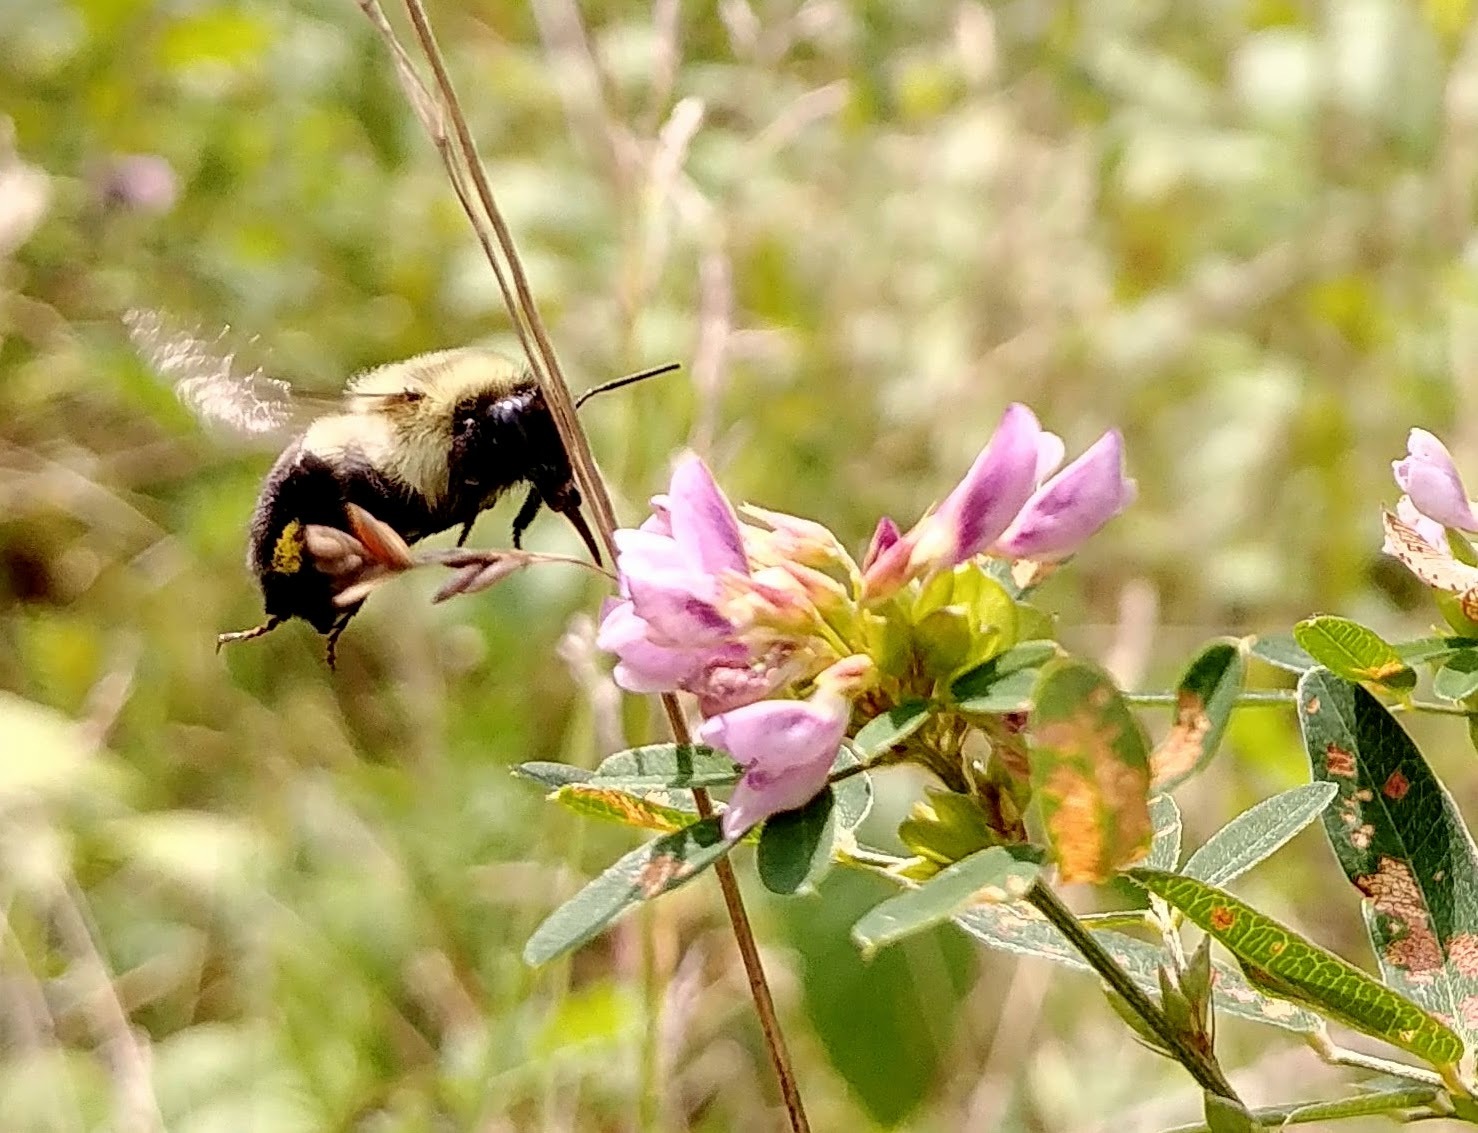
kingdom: Animalia
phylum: Arthropoda
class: Insecta
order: Hymenoptera
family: Apidae
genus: Bombus
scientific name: Bombus impatiens
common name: Common eastern bumble bee
